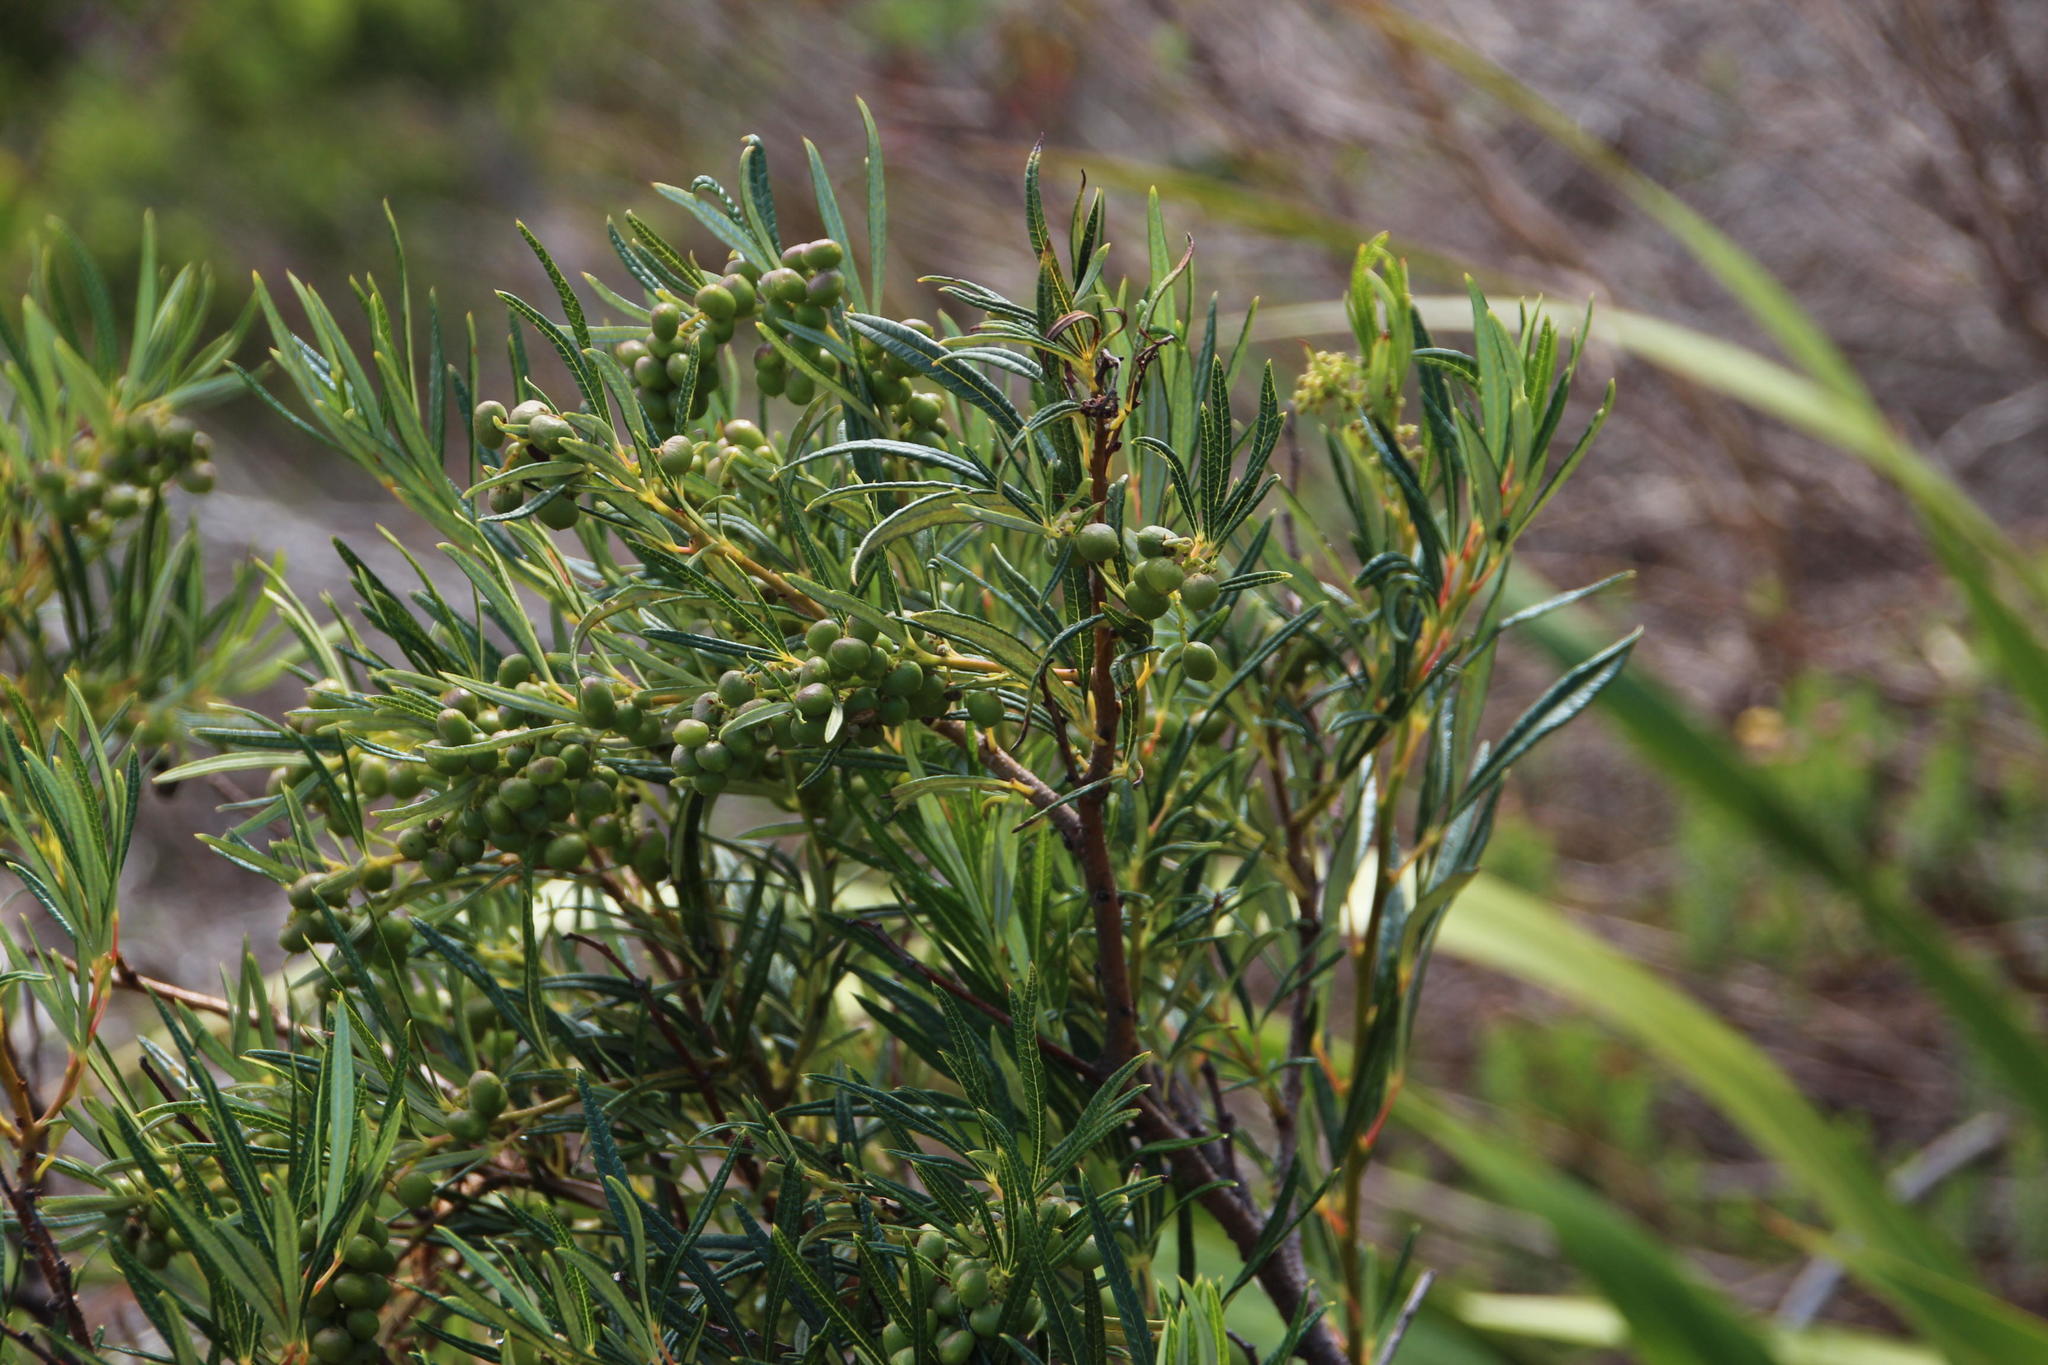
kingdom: Plantae
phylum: Tracheophyta
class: Magnoliopsida
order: Sapindales
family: Anacardiaceae
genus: Searsia
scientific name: Searsia angustifolia
